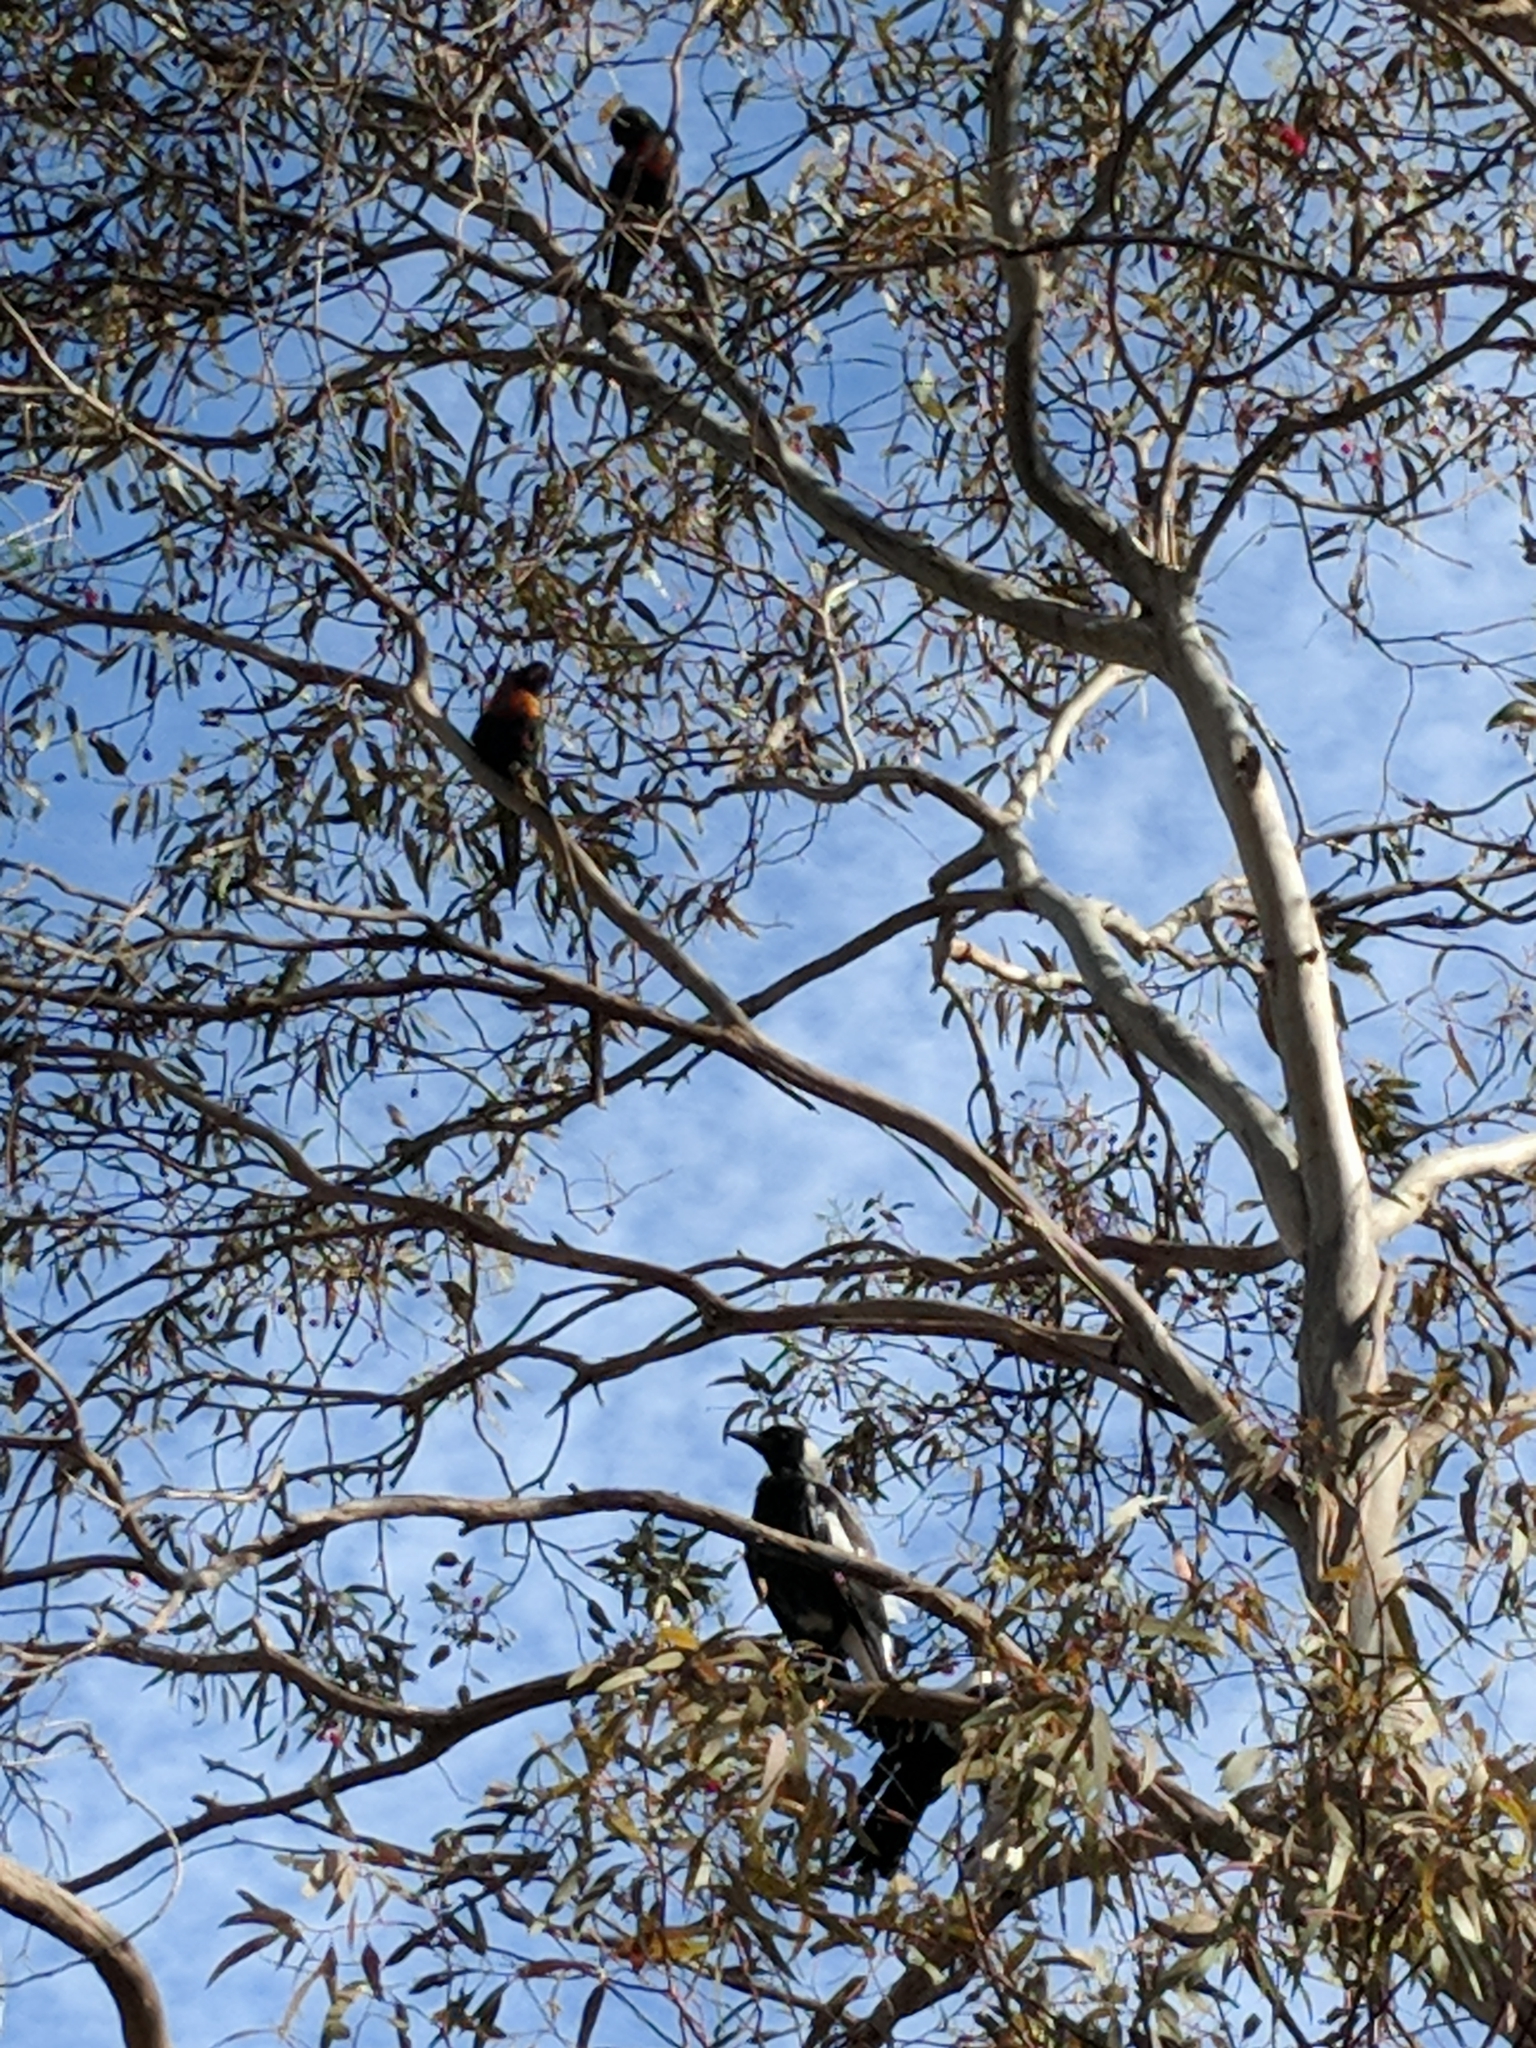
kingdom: Animalia
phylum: Chordata
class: Aves
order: Passeriformes
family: Cracticidae
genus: Gymnorhina
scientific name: Gymnorhina tibicen
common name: Australian magpie
